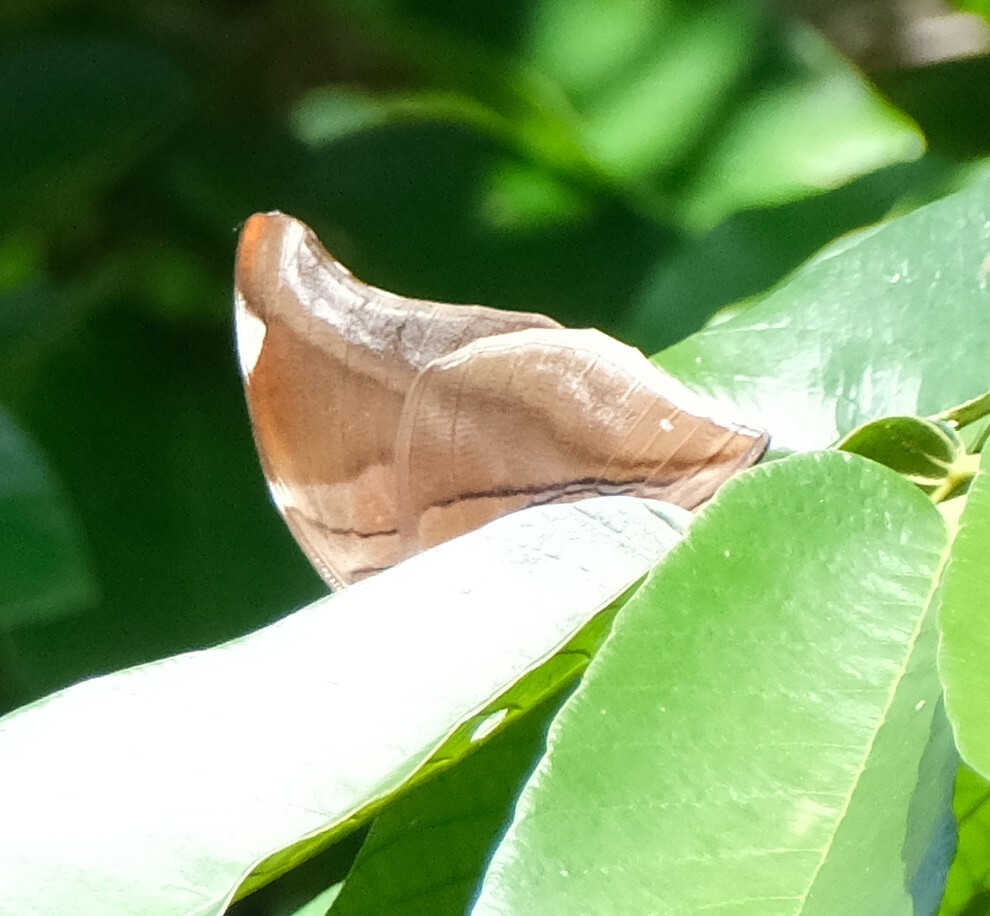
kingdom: Animalia
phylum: Arthropoda
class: Insecta
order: Lepidoptera
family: Nymphalidae
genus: Historis
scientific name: Historis odius
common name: Orion cecropian
